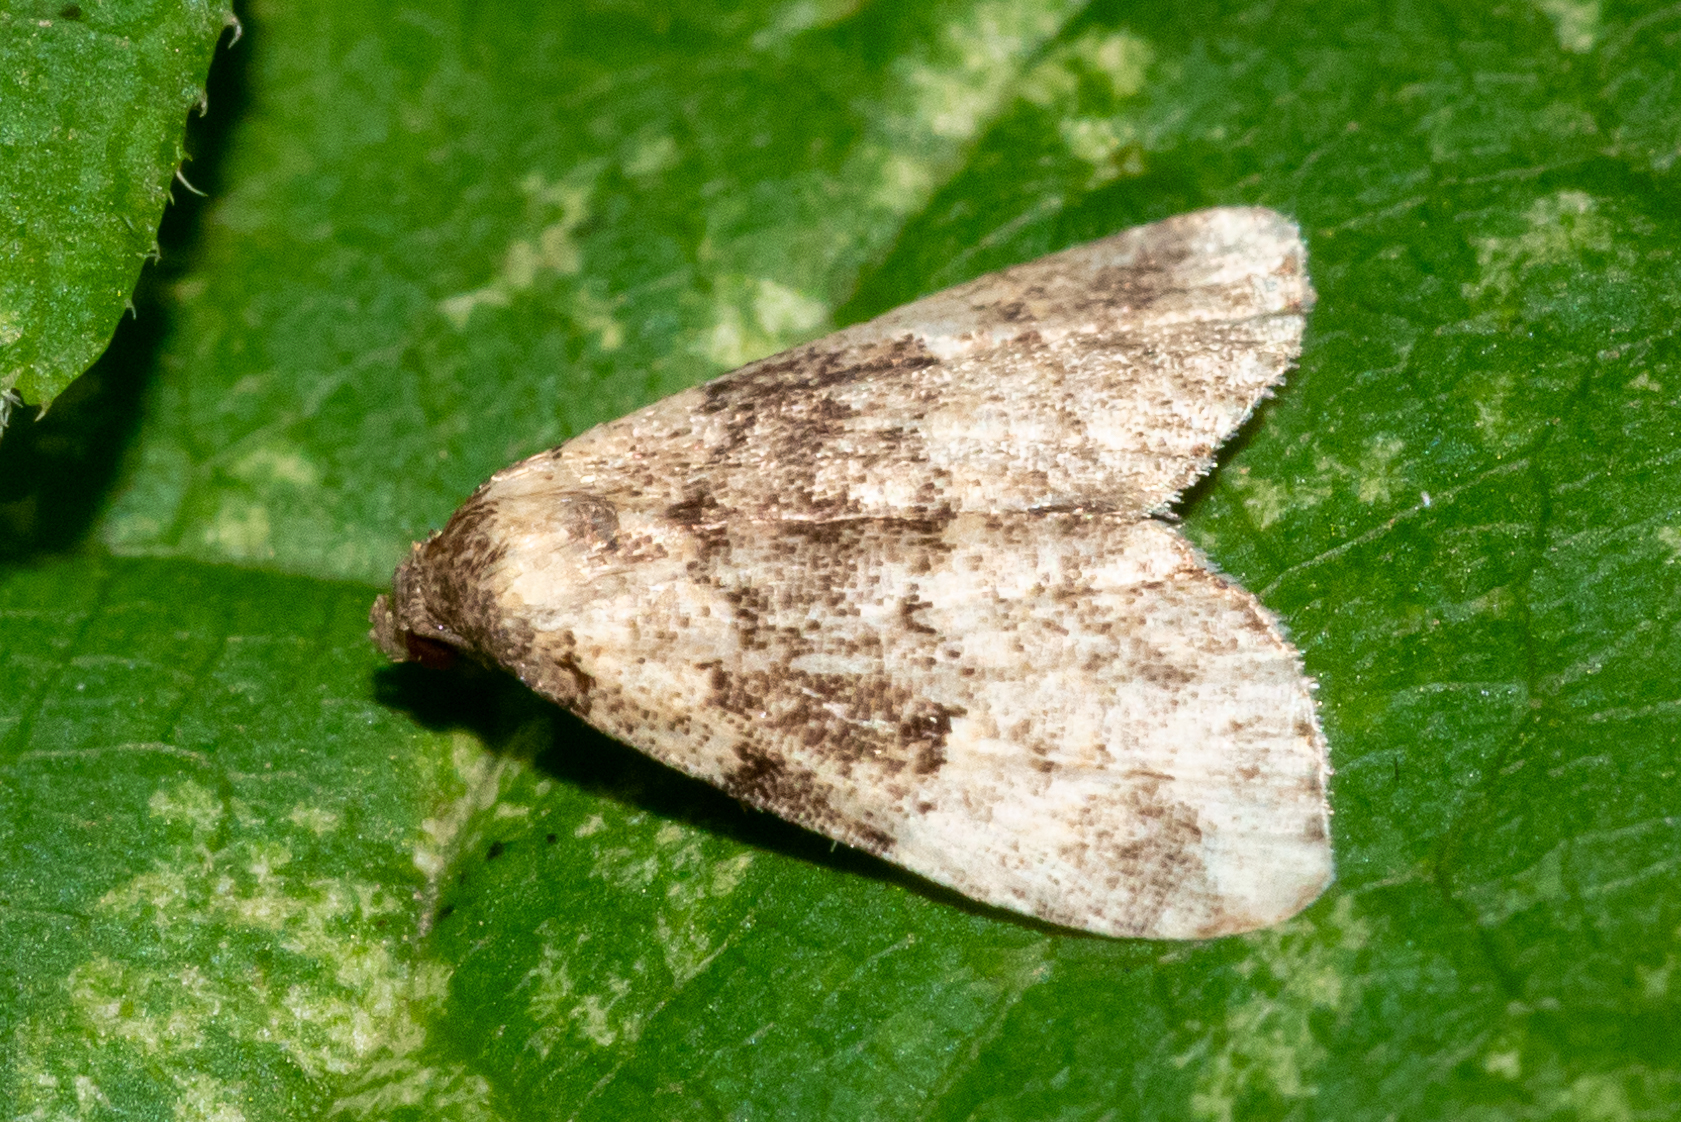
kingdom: Animalia
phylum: Arthropoda
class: Insecta
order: Lepidoptera
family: Erebidae
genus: Dyspyralis
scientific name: Dyspyralis illocata
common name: Visitation moth
